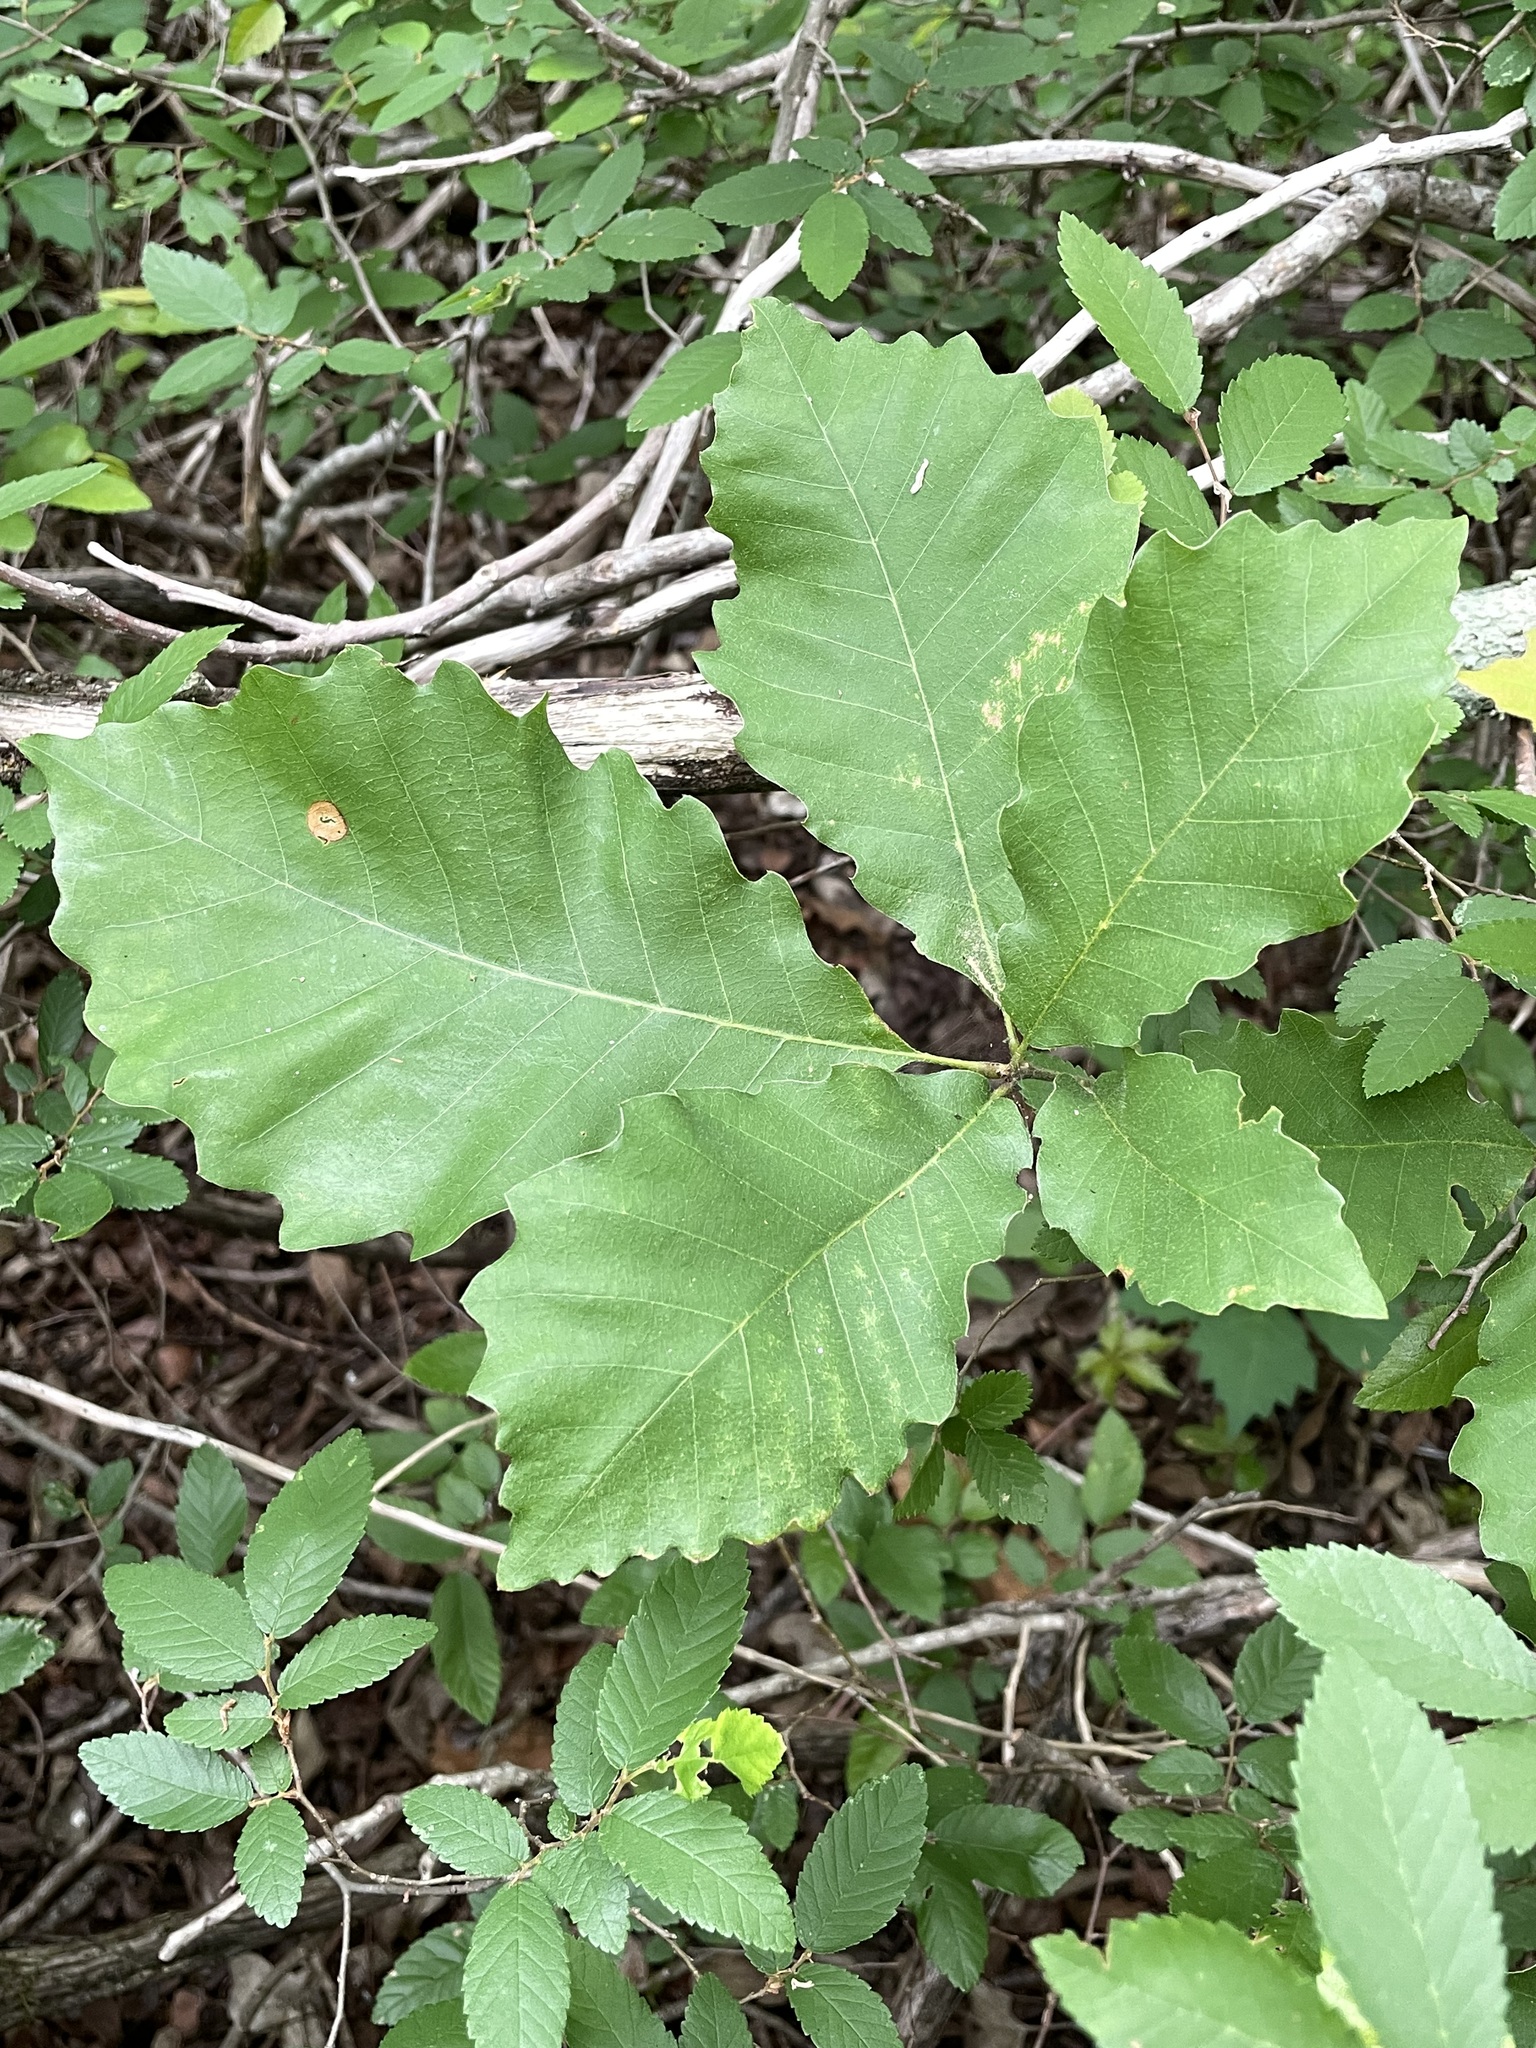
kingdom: Plantae
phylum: Tracheophyta
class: Magnoliopsida
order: Fagales
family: Fagaceae
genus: Quercus
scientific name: Quercus muehlenbergii
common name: Chinkapin oak
